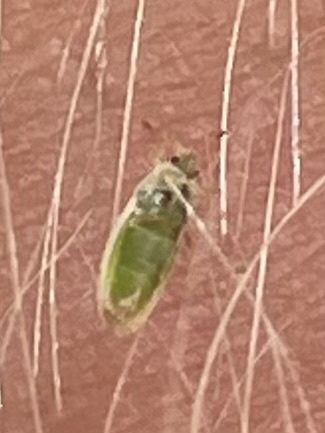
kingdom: Animalia
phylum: Arthropoda
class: Insecta
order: Hemiptera
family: Piesmatidae
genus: Parapiesma
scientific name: Parapiesma cinereum
